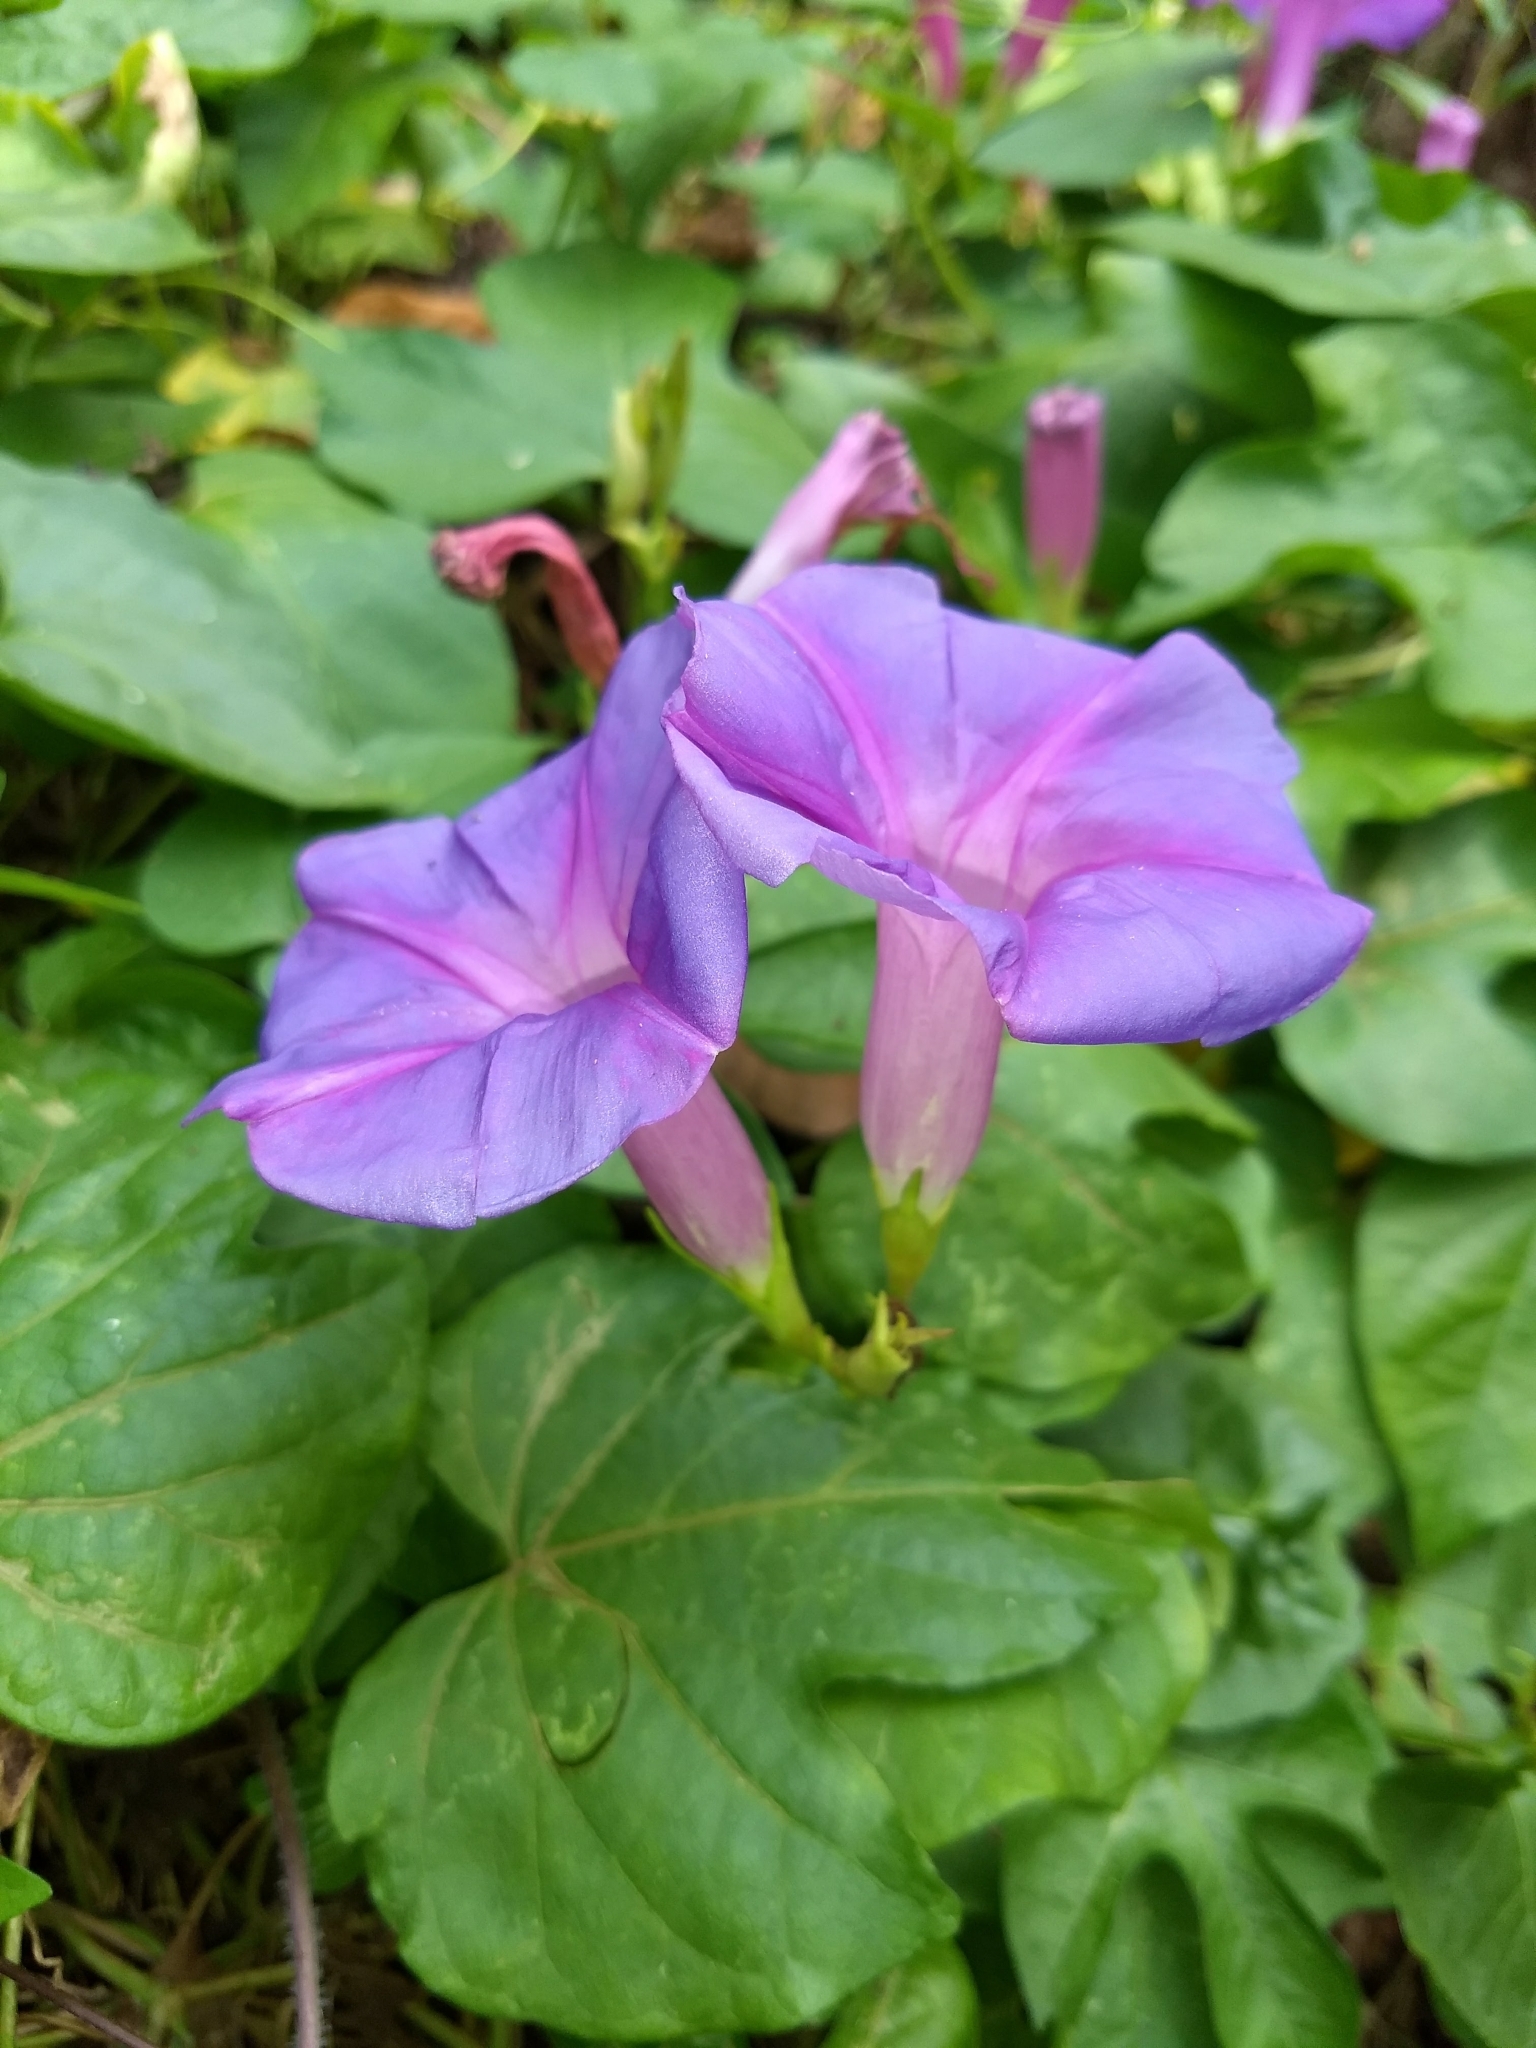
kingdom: Plantae
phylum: Tracheophyta
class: Magnoliopsida
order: Solanales
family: Convolvulaceae
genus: Ipomoea
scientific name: Ipomoea indica
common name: Blue dawnflower
